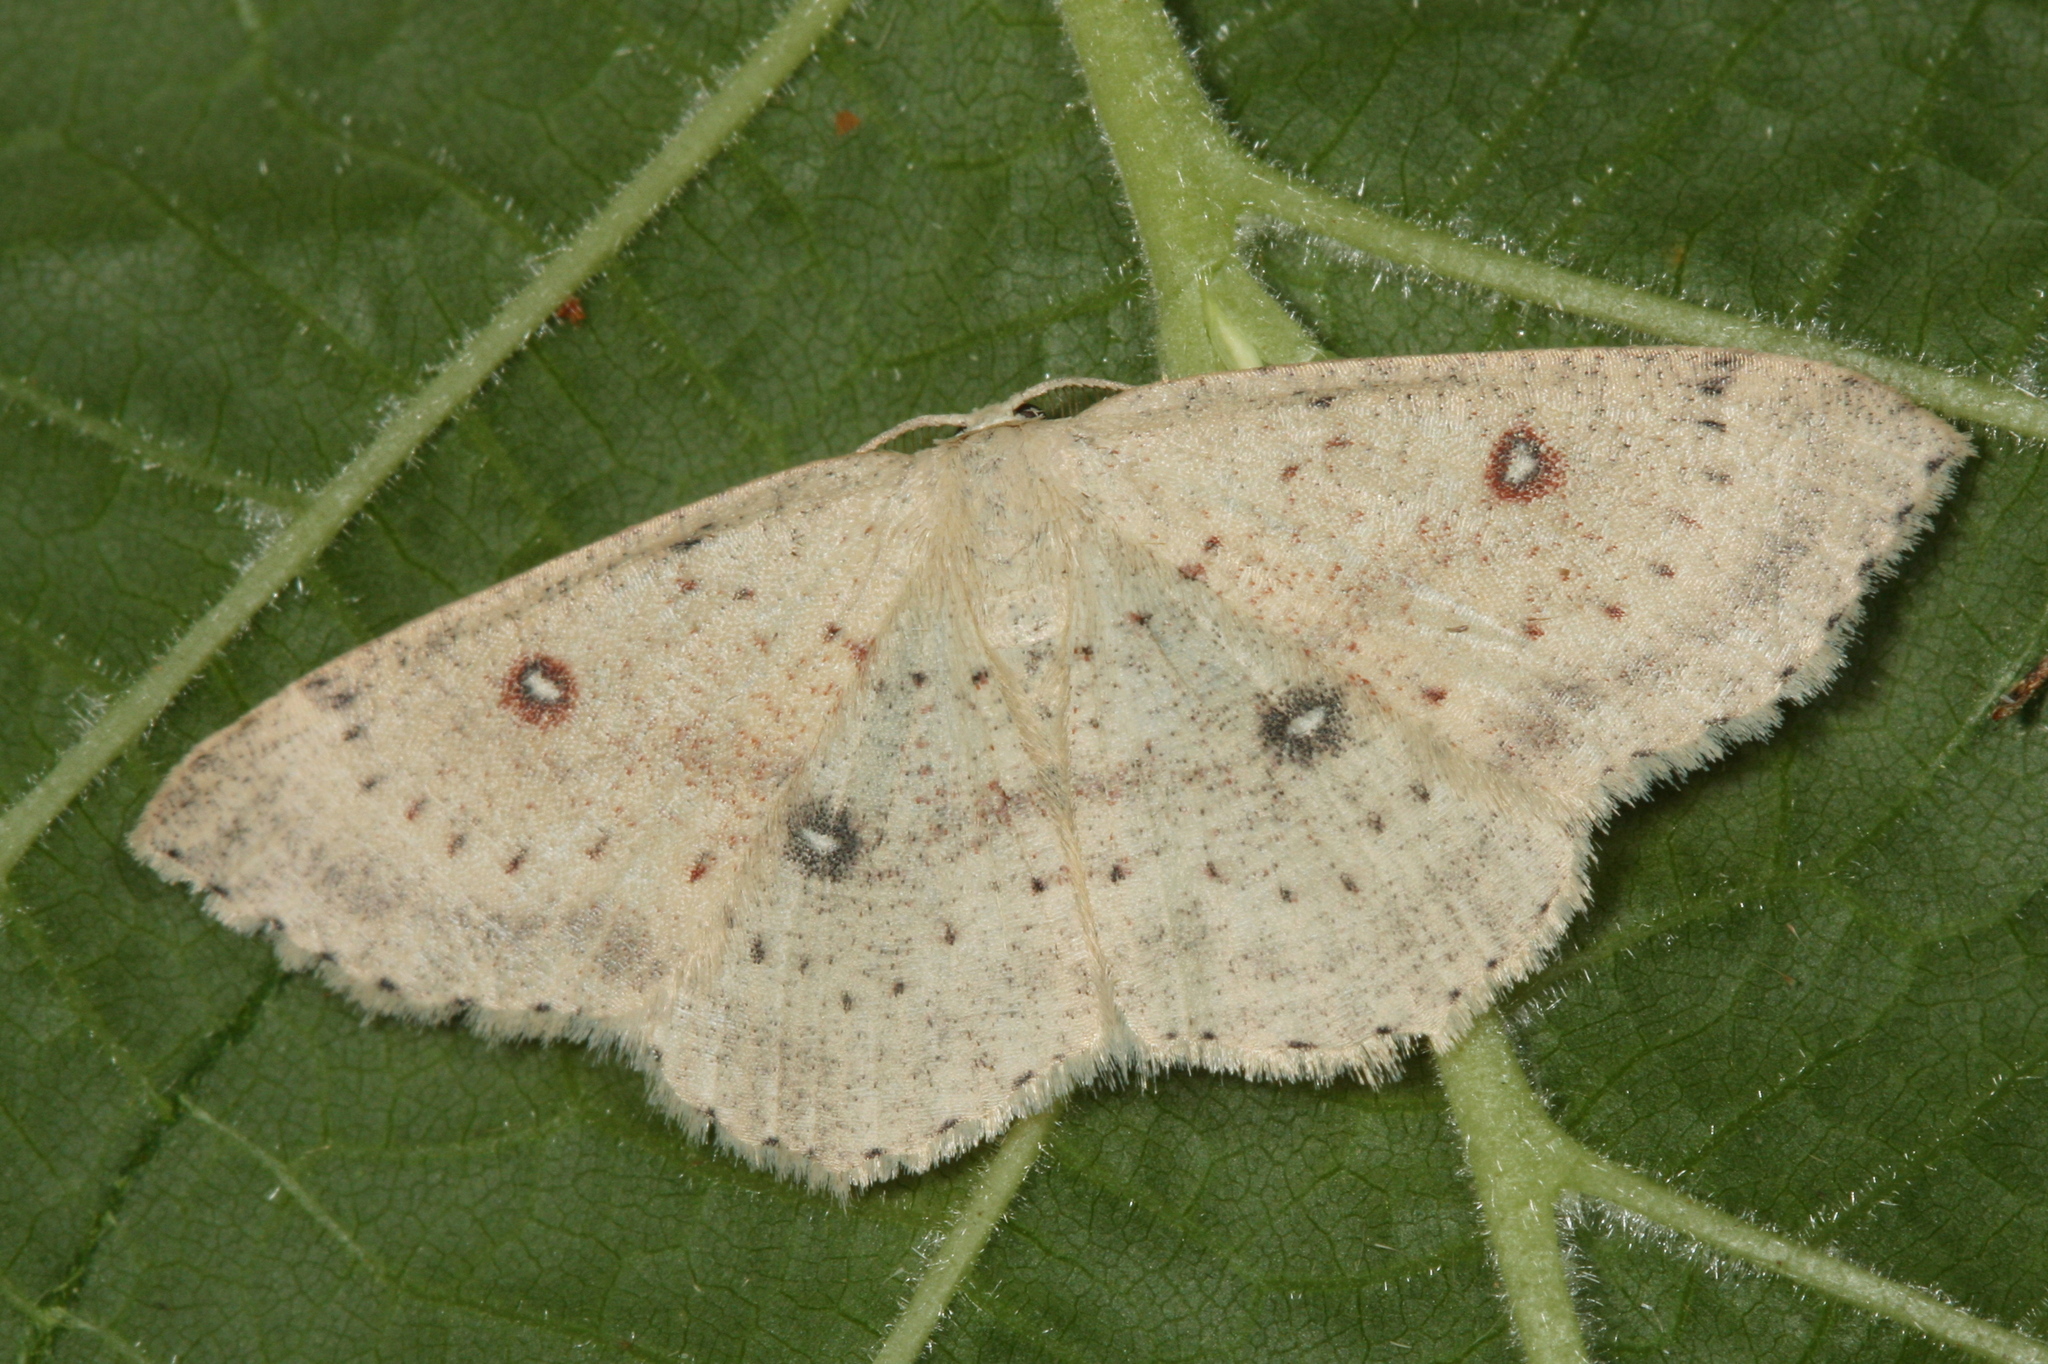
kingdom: Animalia
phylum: Arthropoda
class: Insecta
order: Lepidoptera
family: Geometridae
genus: Cyclophora
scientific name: Cyclophora albipunctata
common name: Birch mocha
